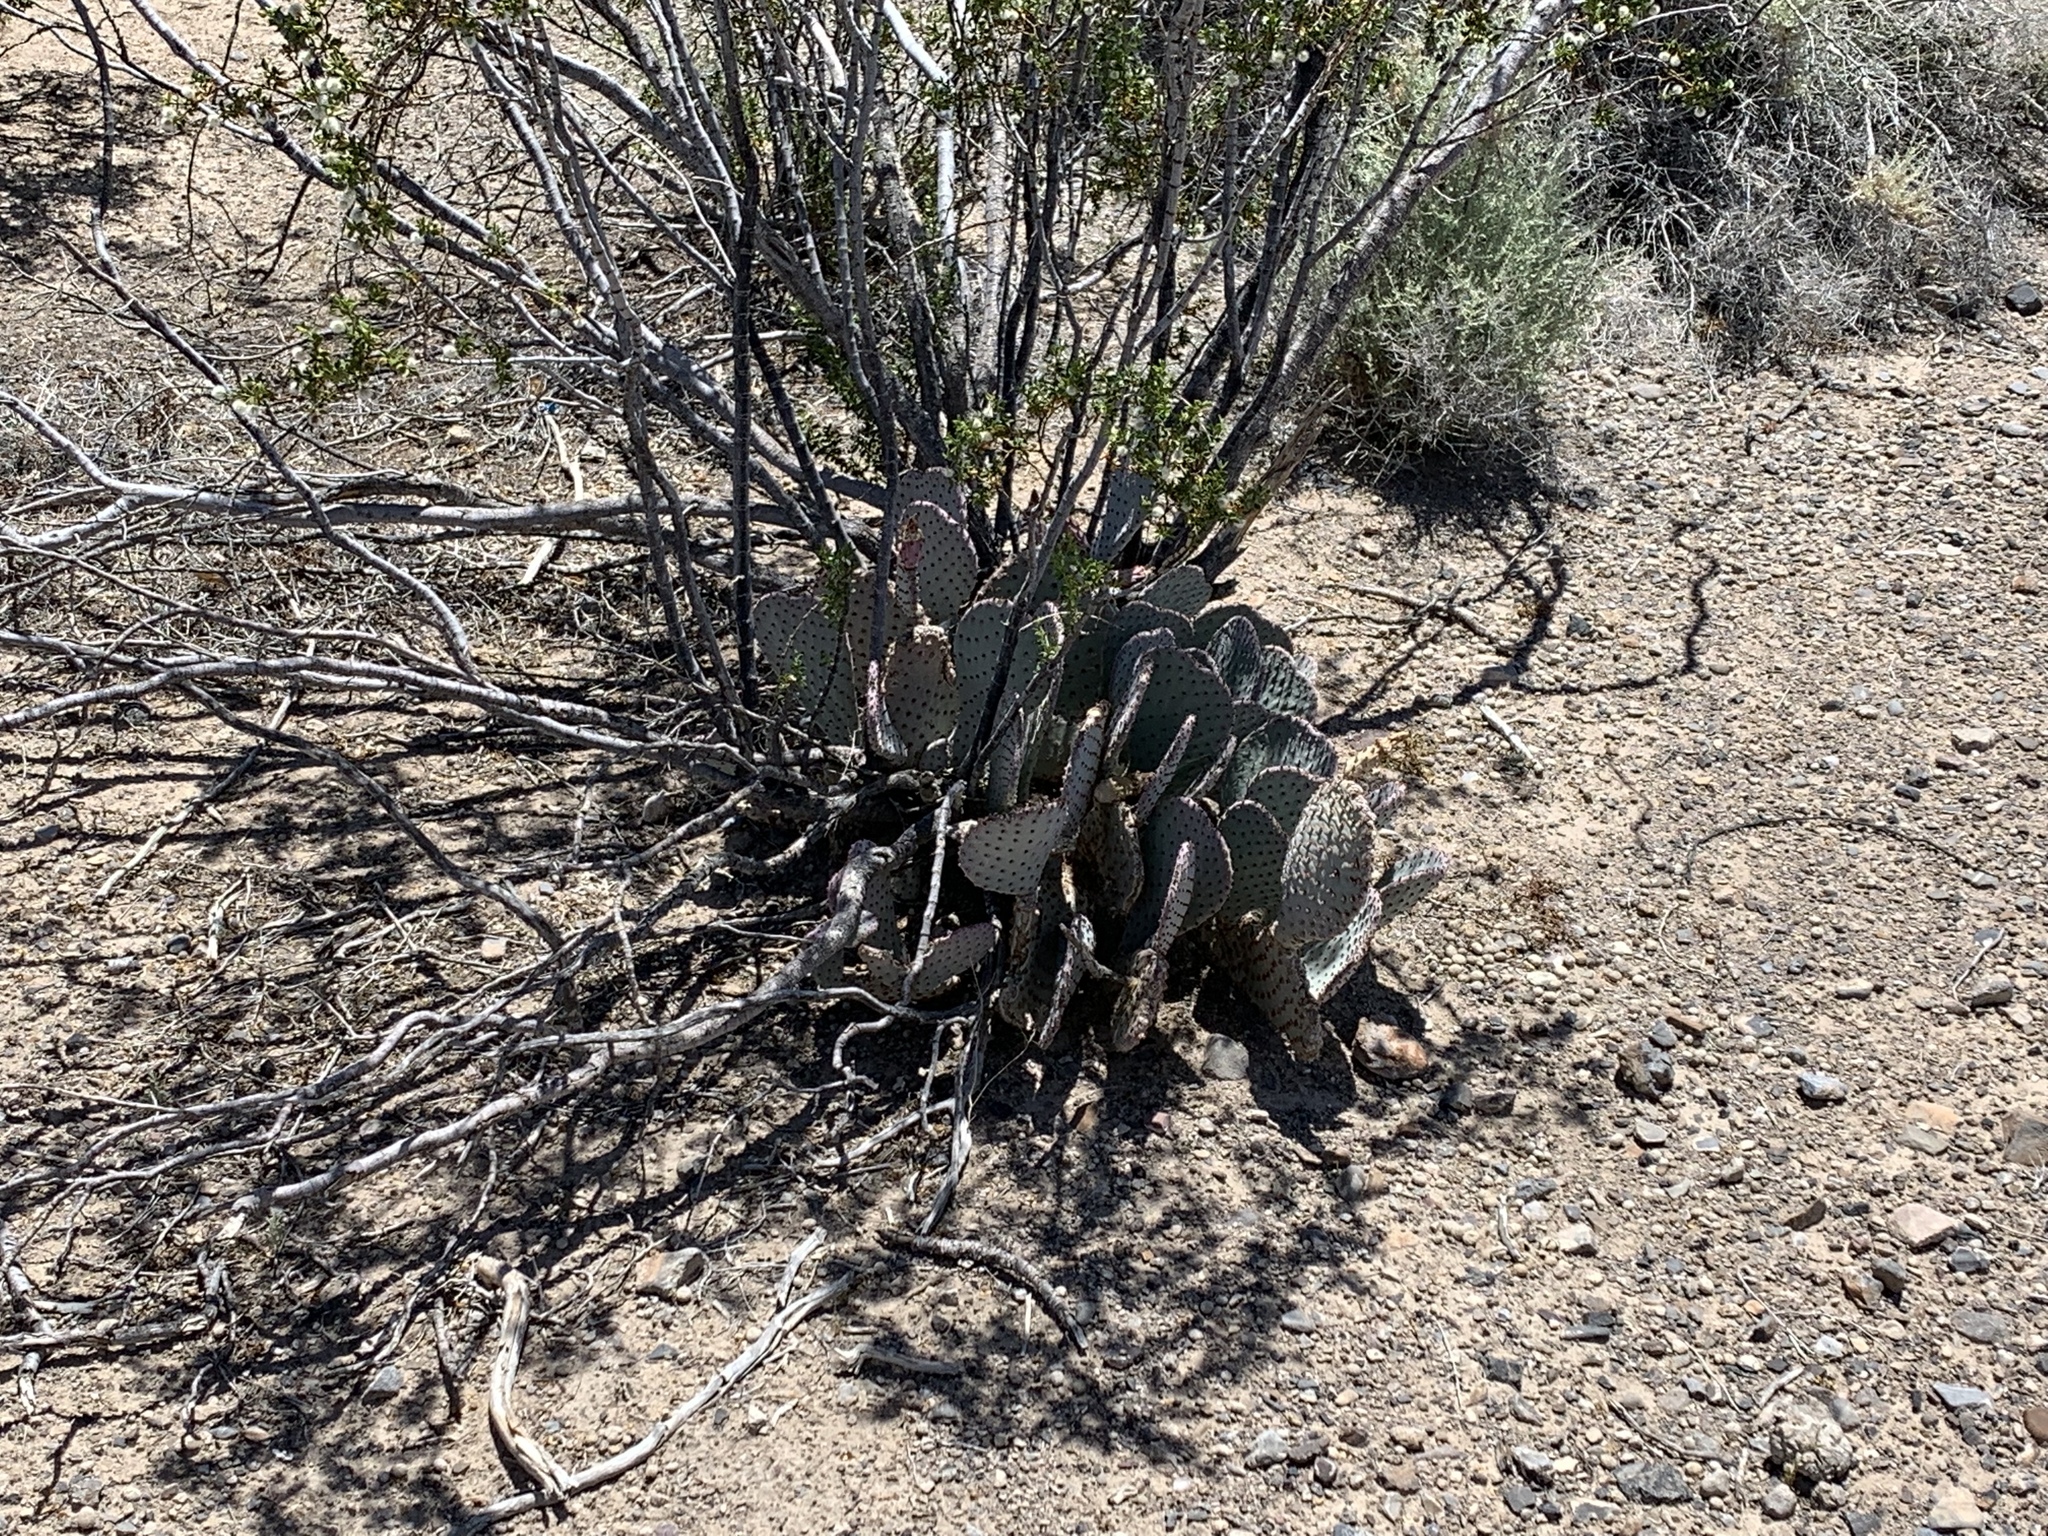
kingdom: Plantae
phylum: Tracheophyta
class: Magnoliopsida
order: Caryophyllales
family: Cactaceae
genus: Opuntia
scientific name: Opuntia basilaris
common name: Beavertail prickly-pear
